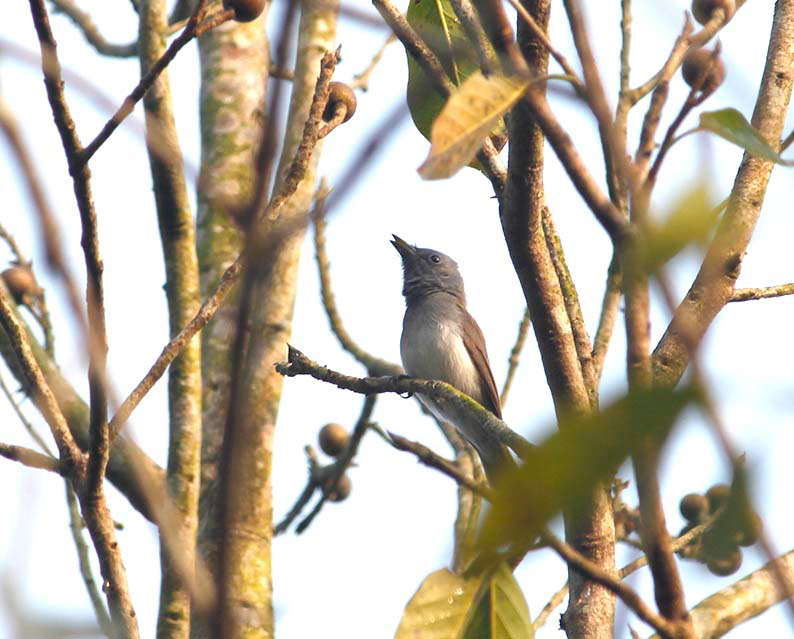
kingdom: Animalia
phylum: Chordata
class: Aves
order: Passeriformes
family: Monarchidae
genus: Hypothymis
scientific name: Hypothymis azurea
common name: Black-naped monarch
